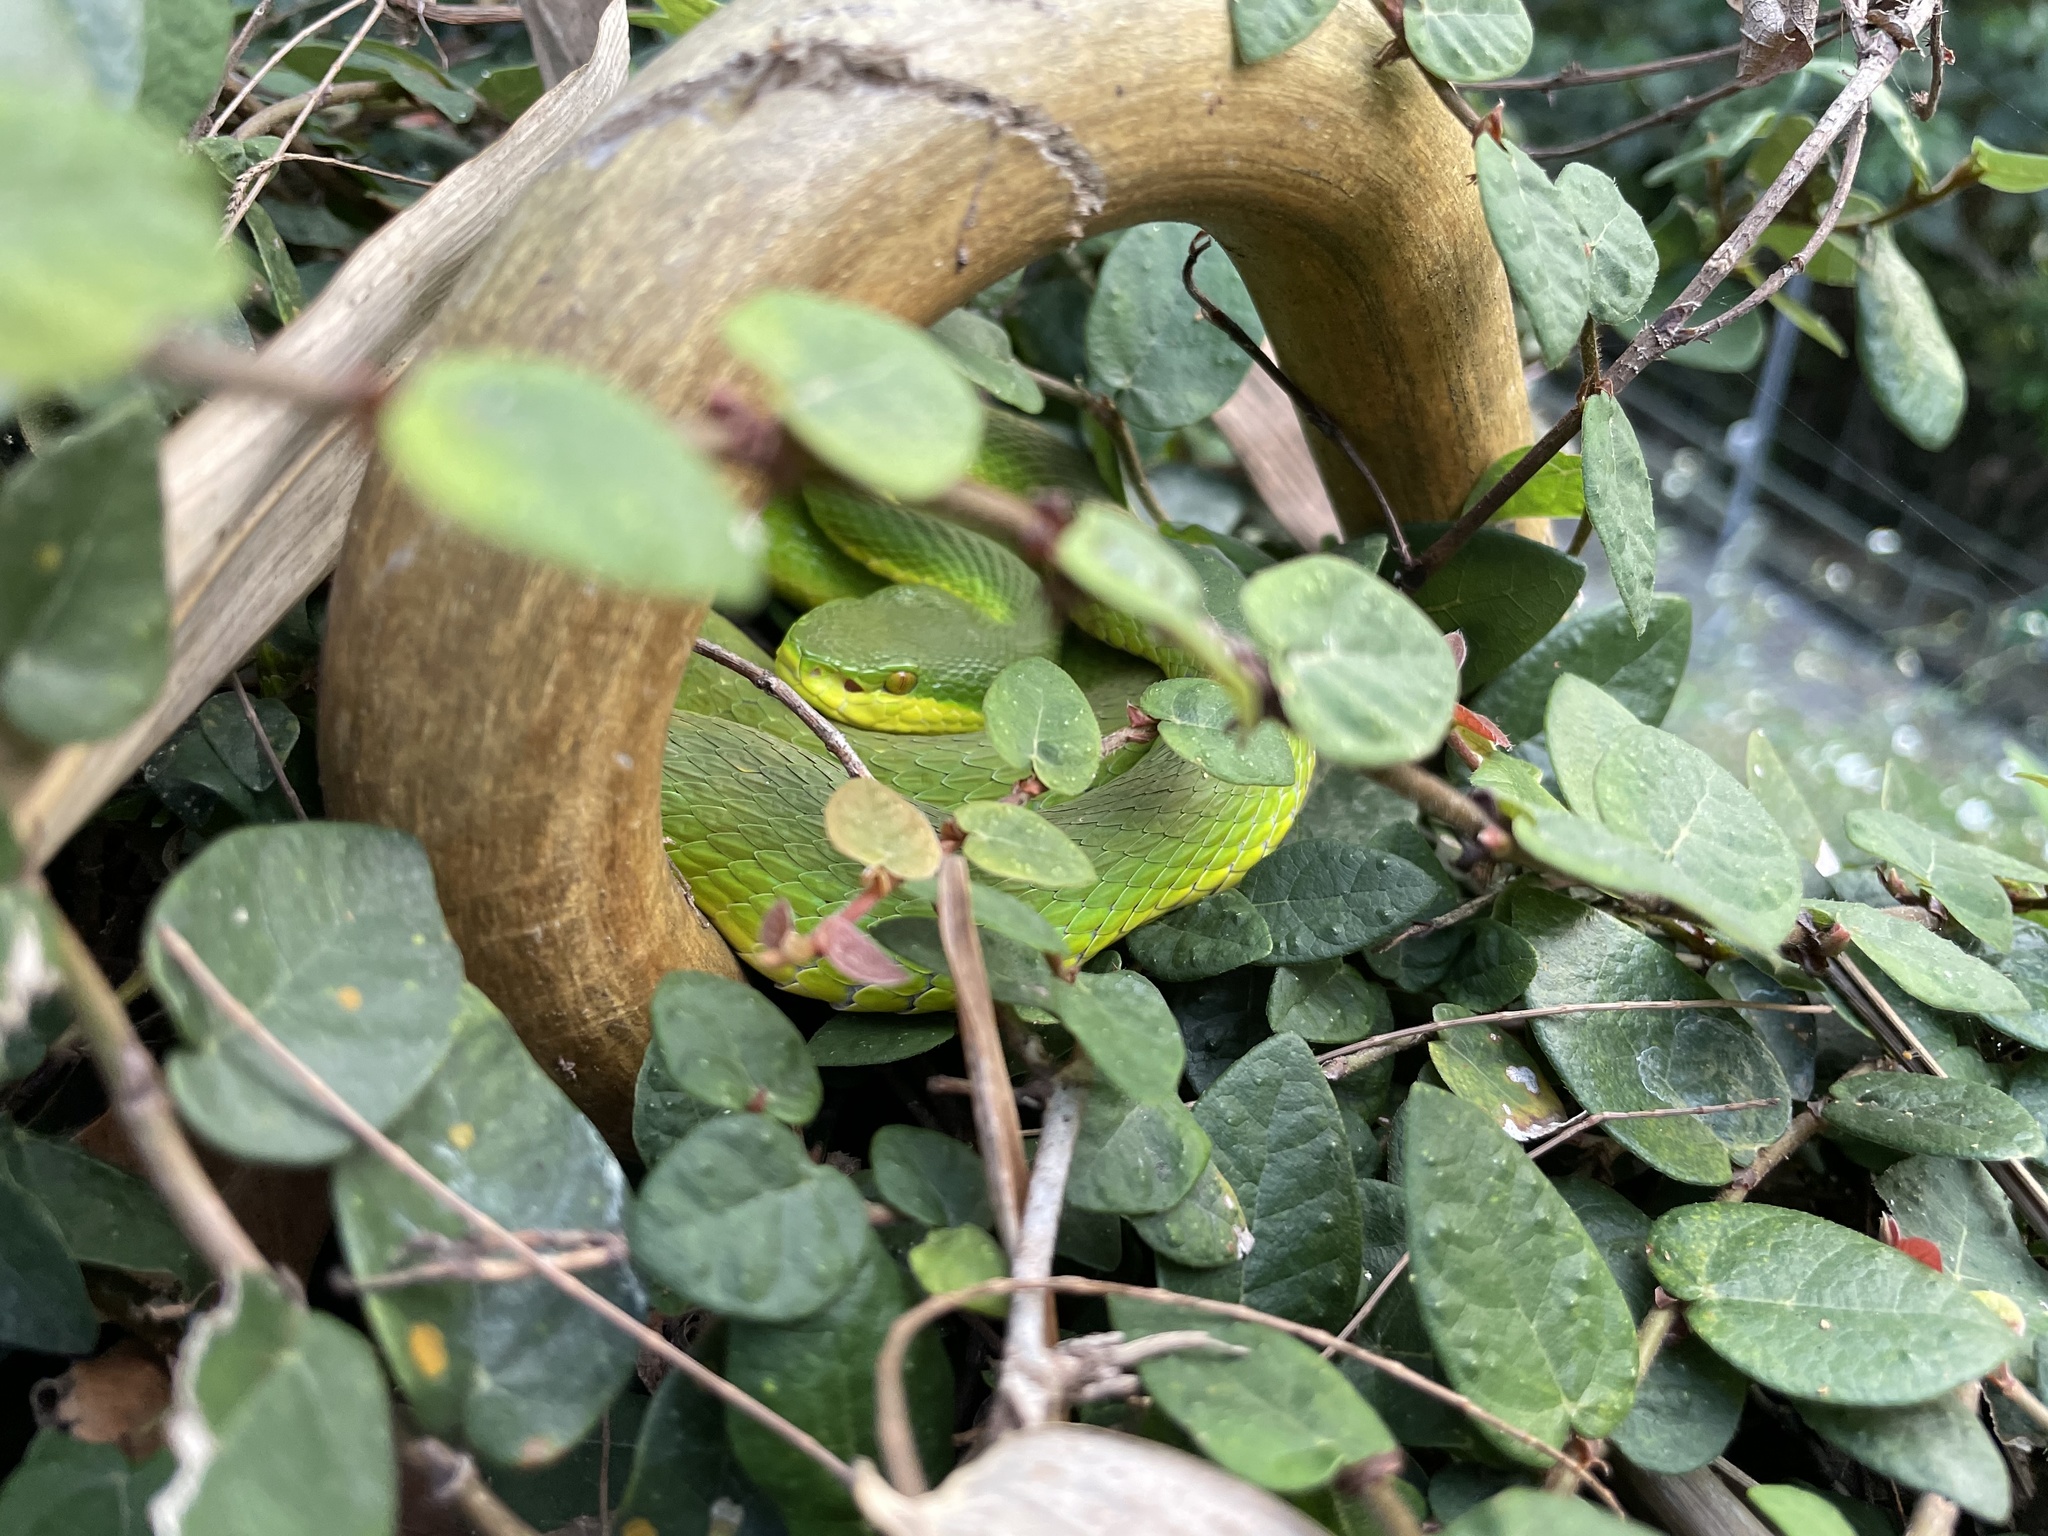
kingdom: Animalia
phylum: Chordata
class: Squamata
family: Viperidae
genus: Trimeresurus
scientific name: Trimeresurus albolabris
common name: White-lipped pitviper
